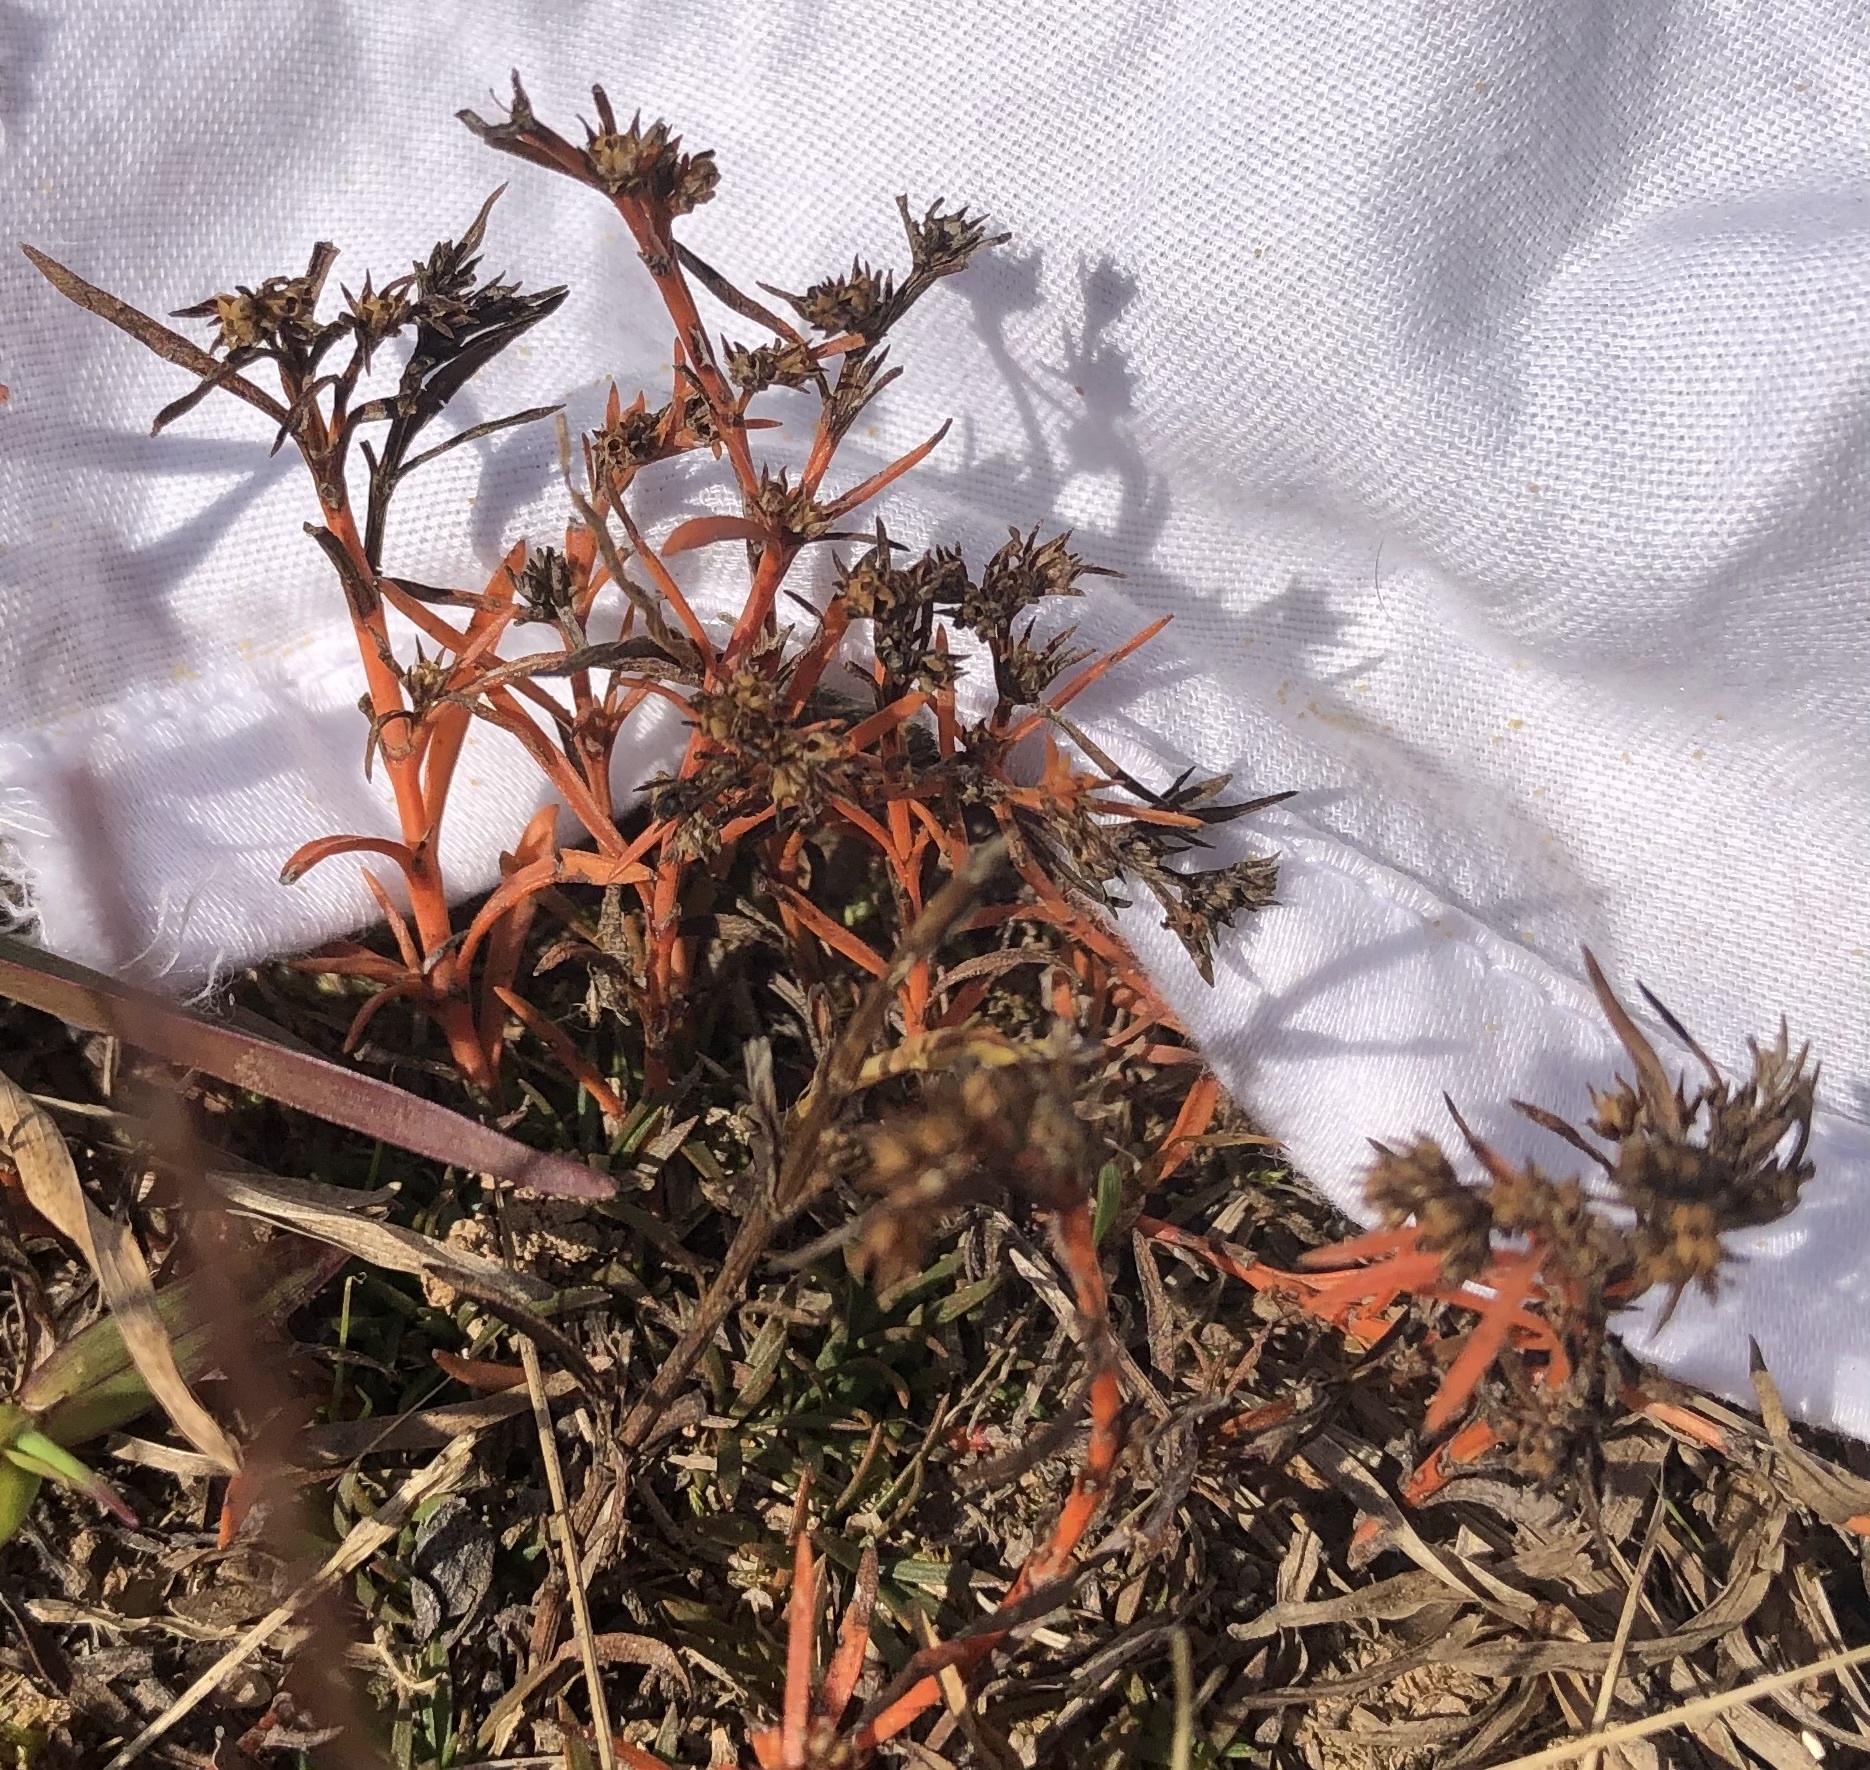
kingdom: Plantae
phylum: Tracheophyta
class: Magnoliopsida
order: Lamiales
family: Tetrachondraceae
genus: Polypremum
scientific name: Polypremum procumbens
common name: Juniper-leaf
